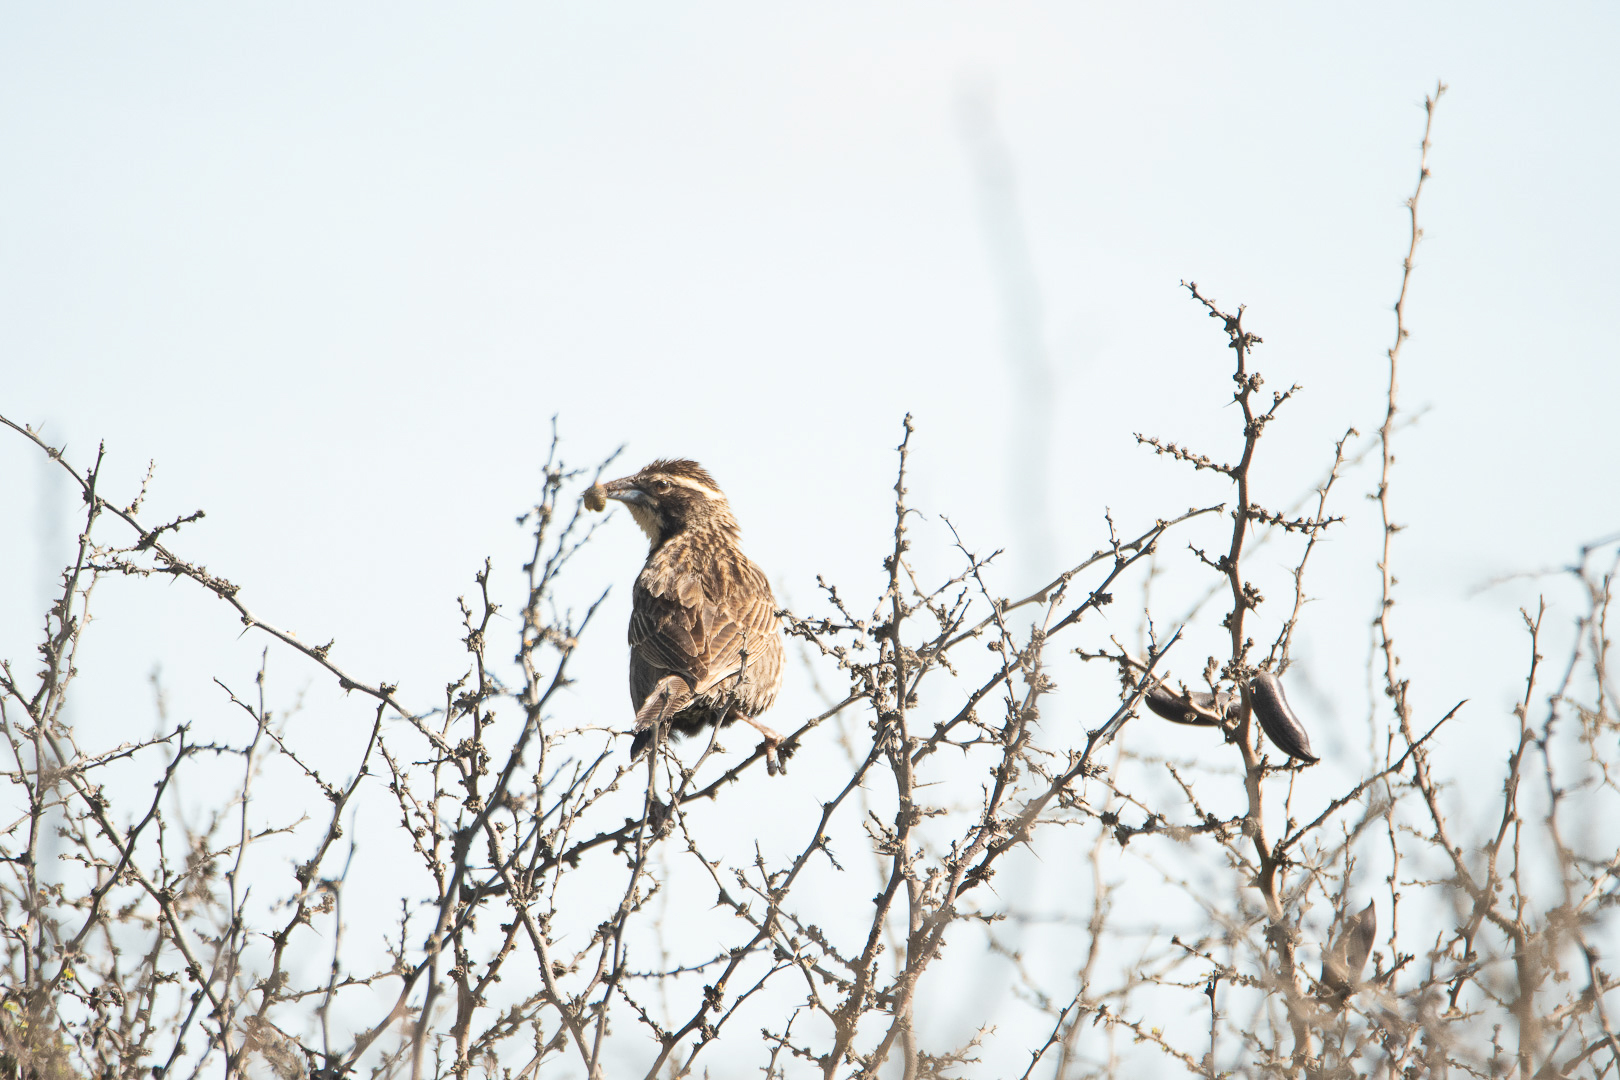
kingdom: Animalia
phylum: Chordata
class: Aves
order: Passeriformes
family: Icteridae
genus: Sturnella
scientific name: Sturnella loyca
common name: Long-tailed meadowlark
